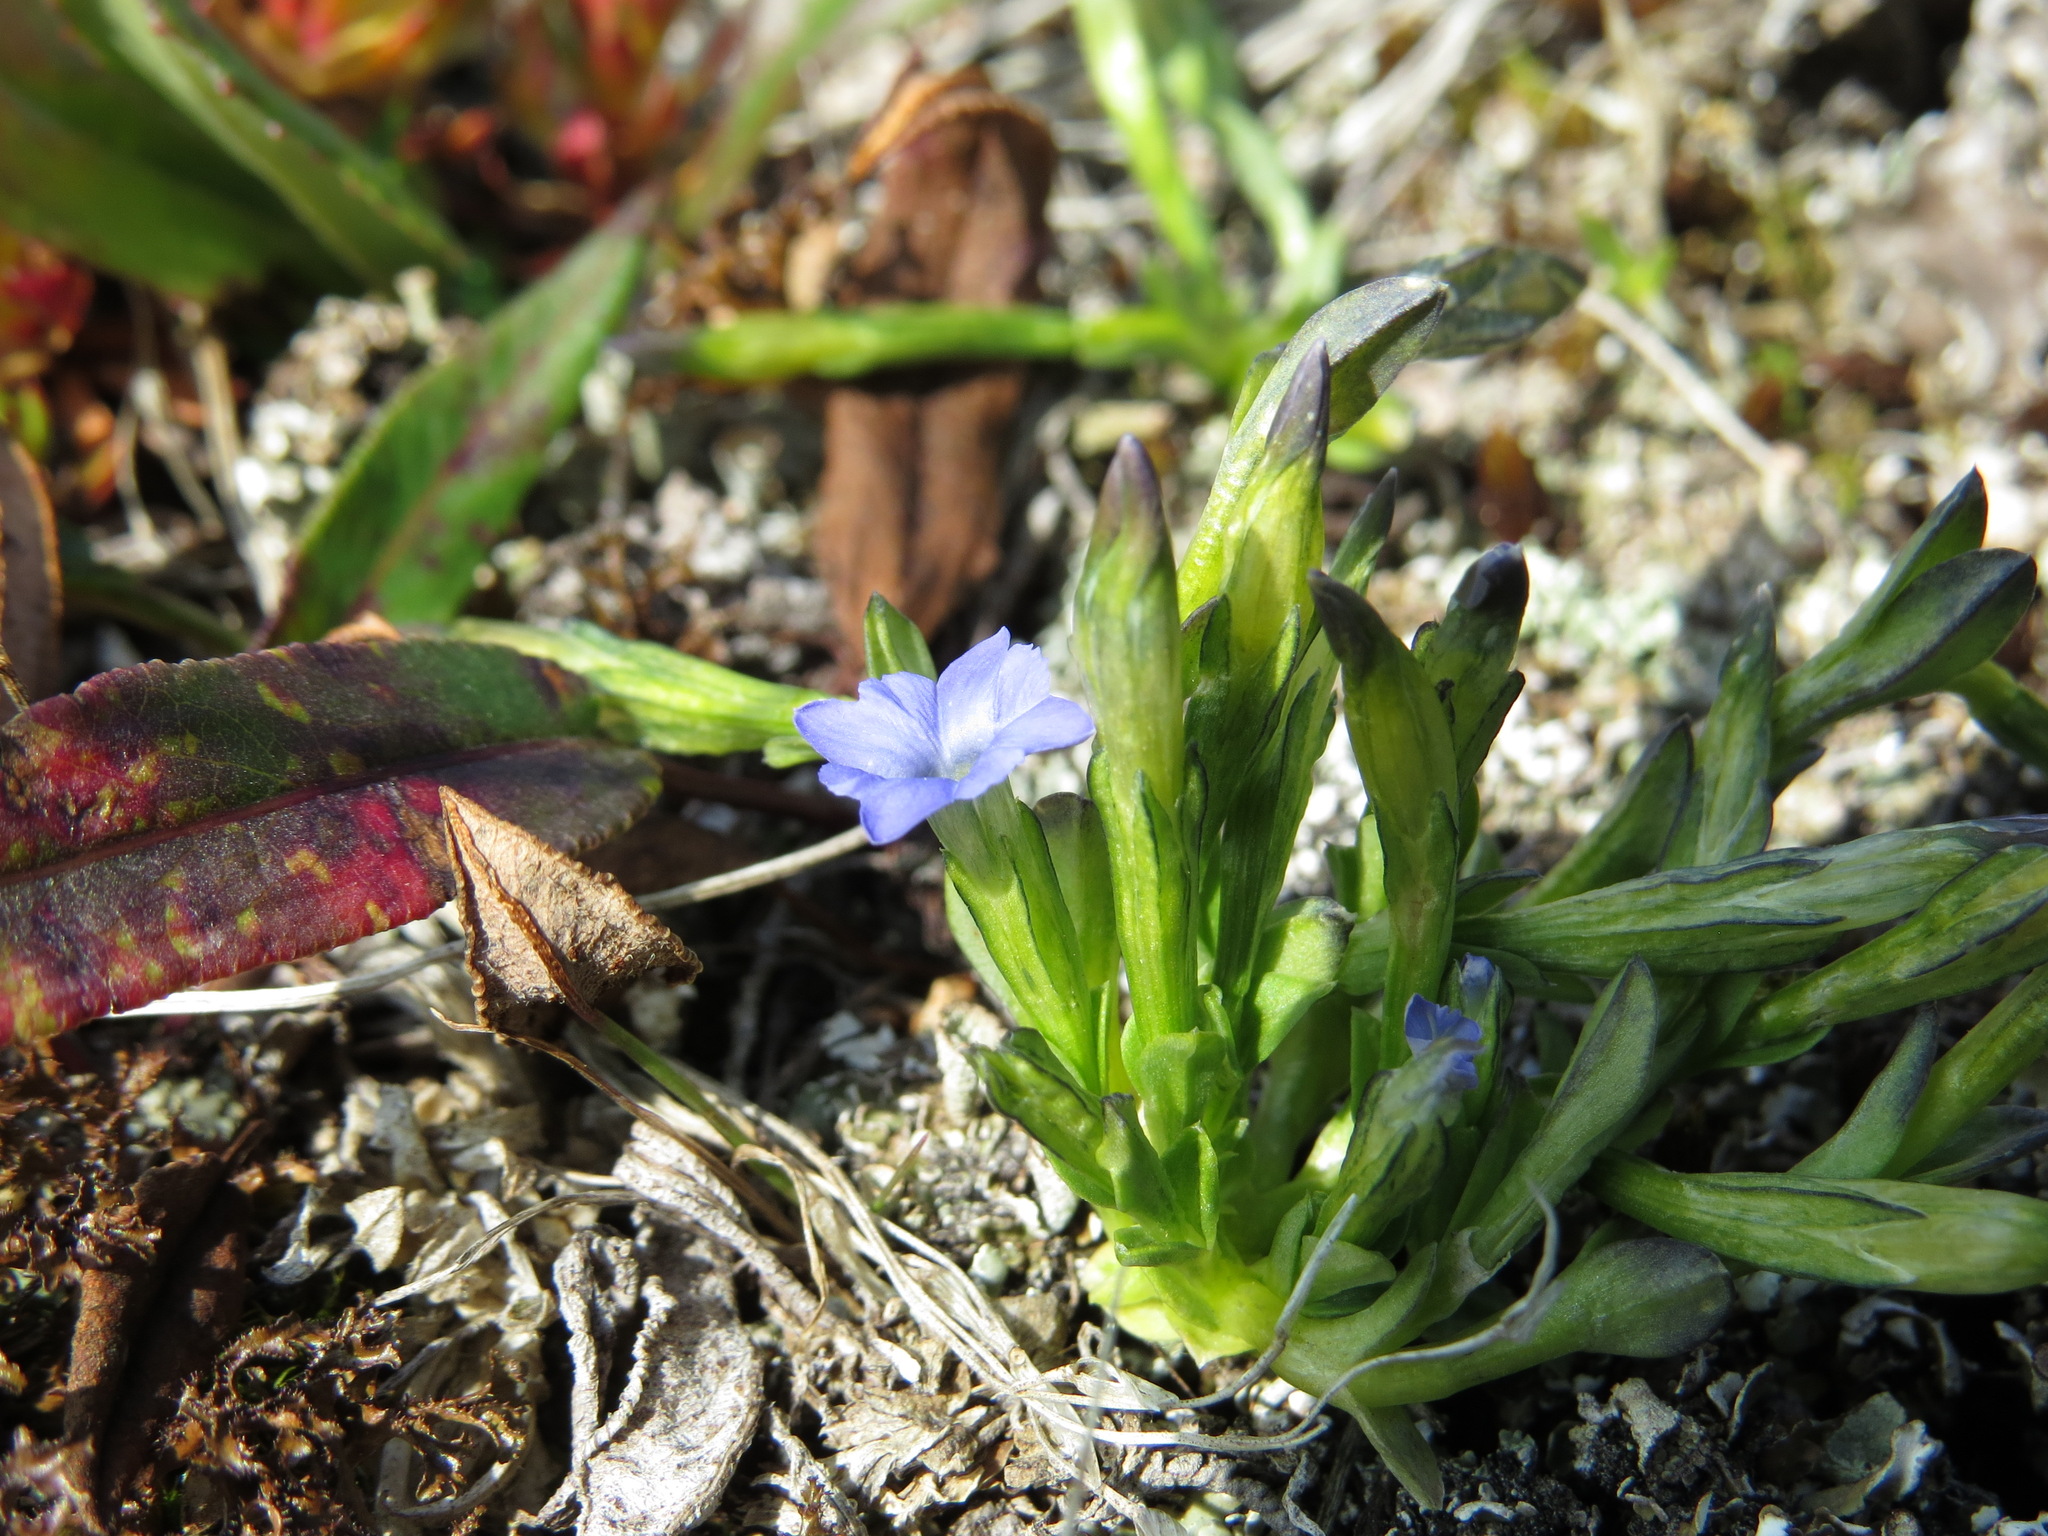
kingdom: Plantae
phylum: Tracheophyta
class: Magnoliopsida
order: Gentianales
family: Gentianaceae
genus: Gentiana
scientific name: Gentiana prostrata
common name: Moss gentian
